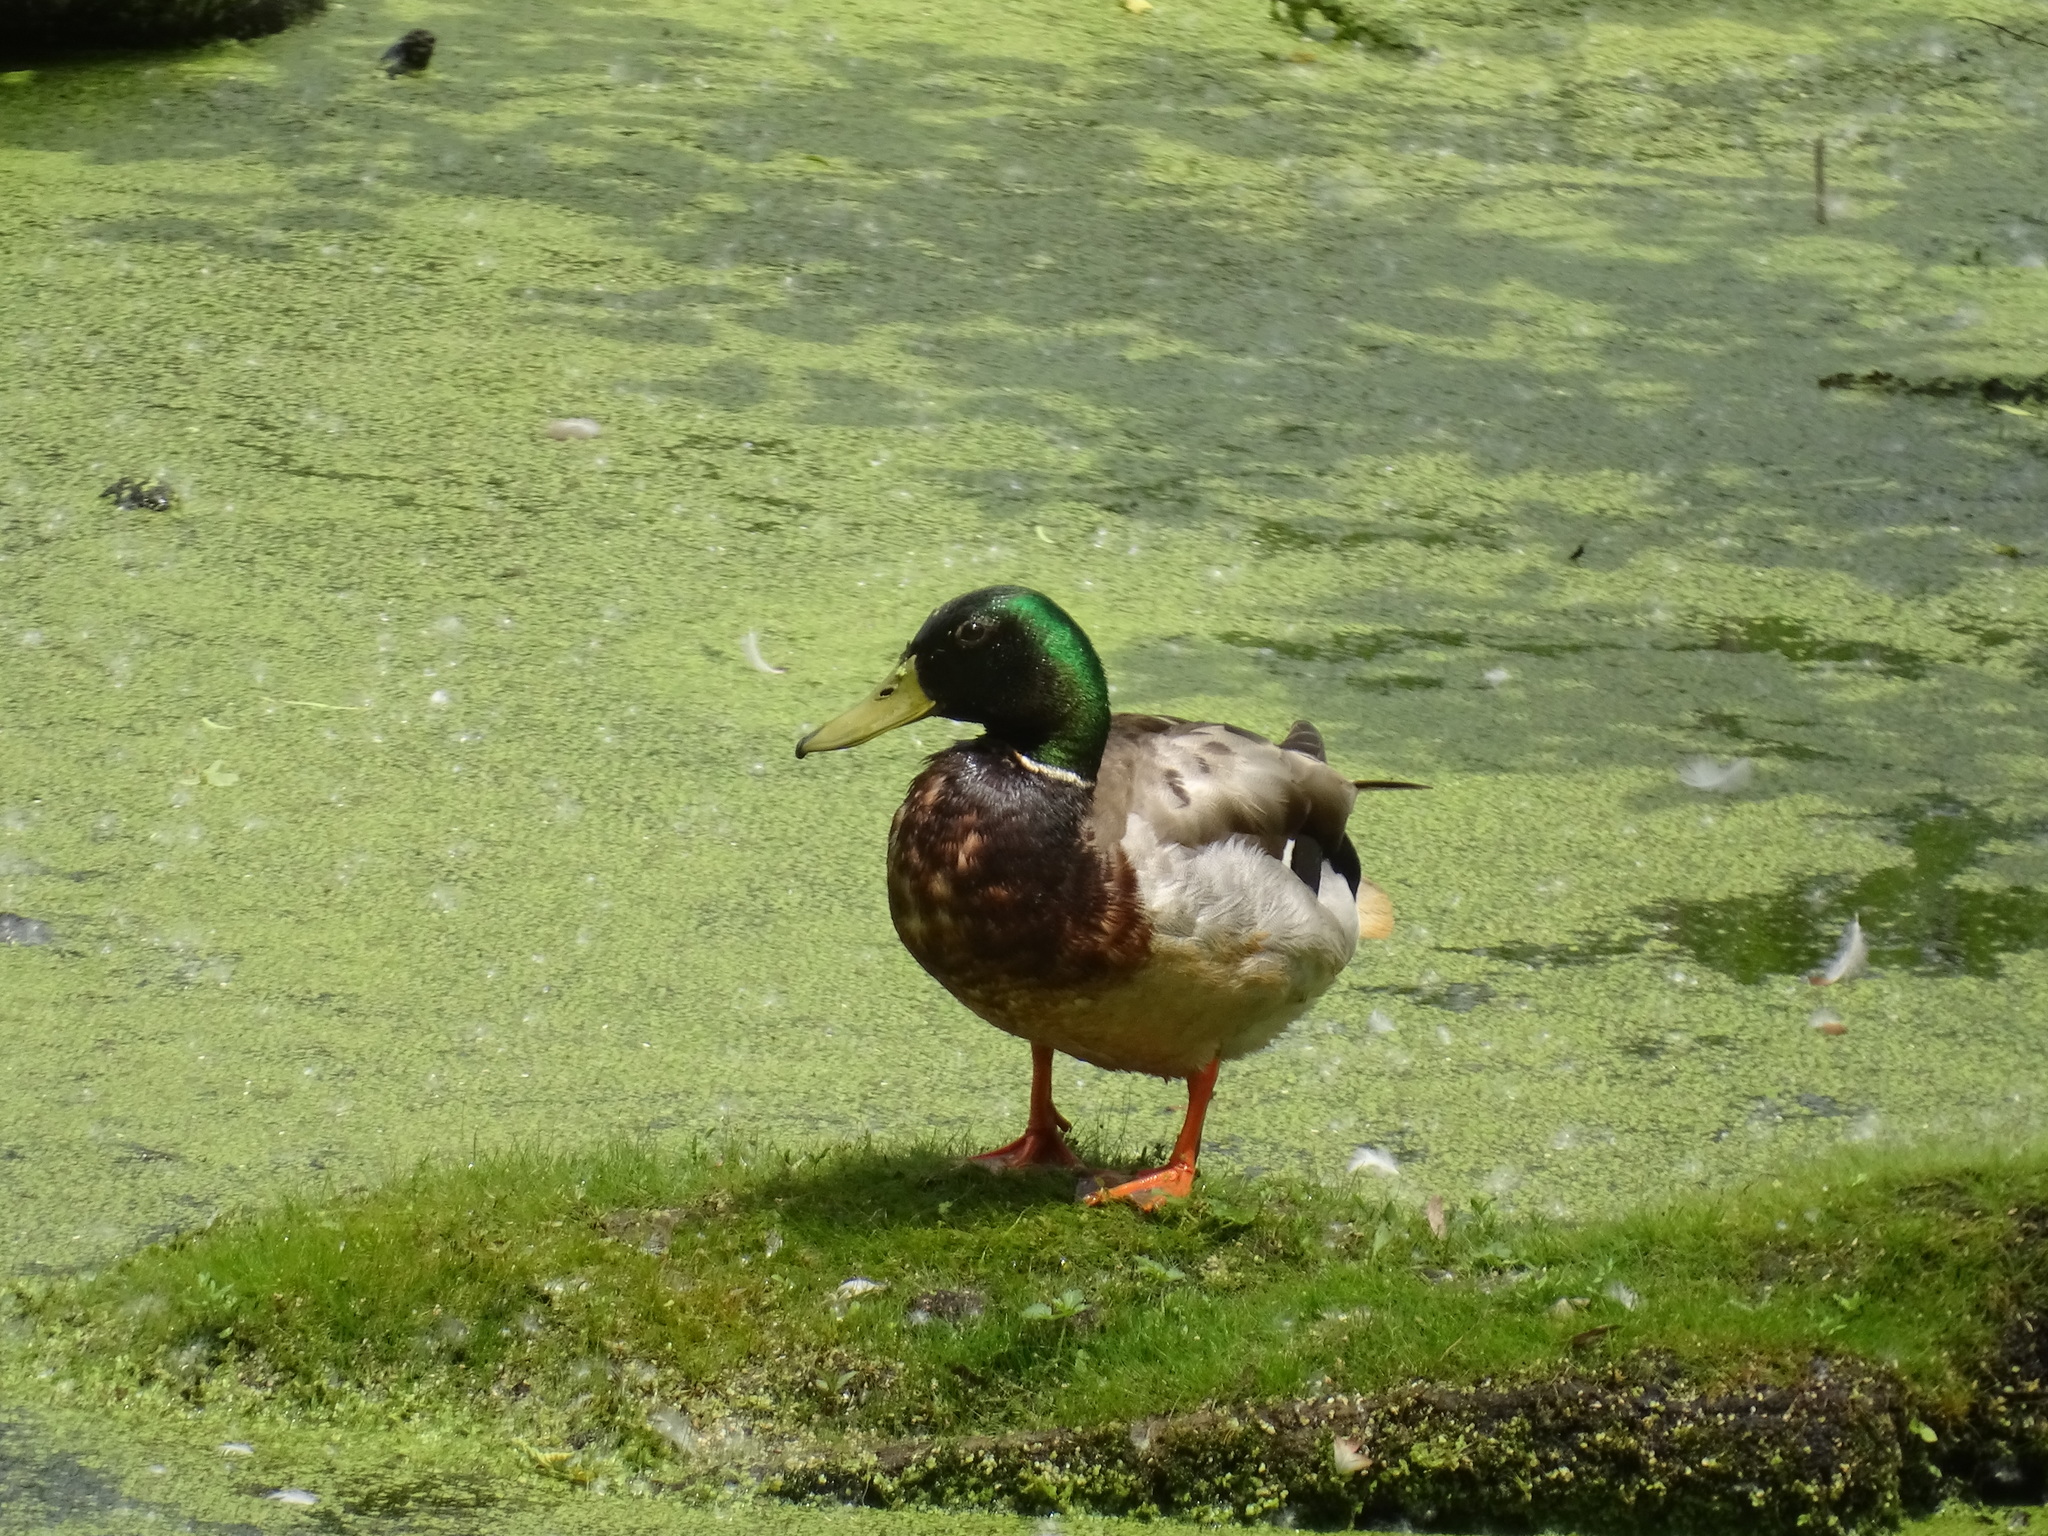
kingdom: Animalia
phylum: Chordata
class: Aves
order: Anseriformes
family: Anatidae
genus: Anas
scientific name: Anas platyrhynchos
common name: Mallard
